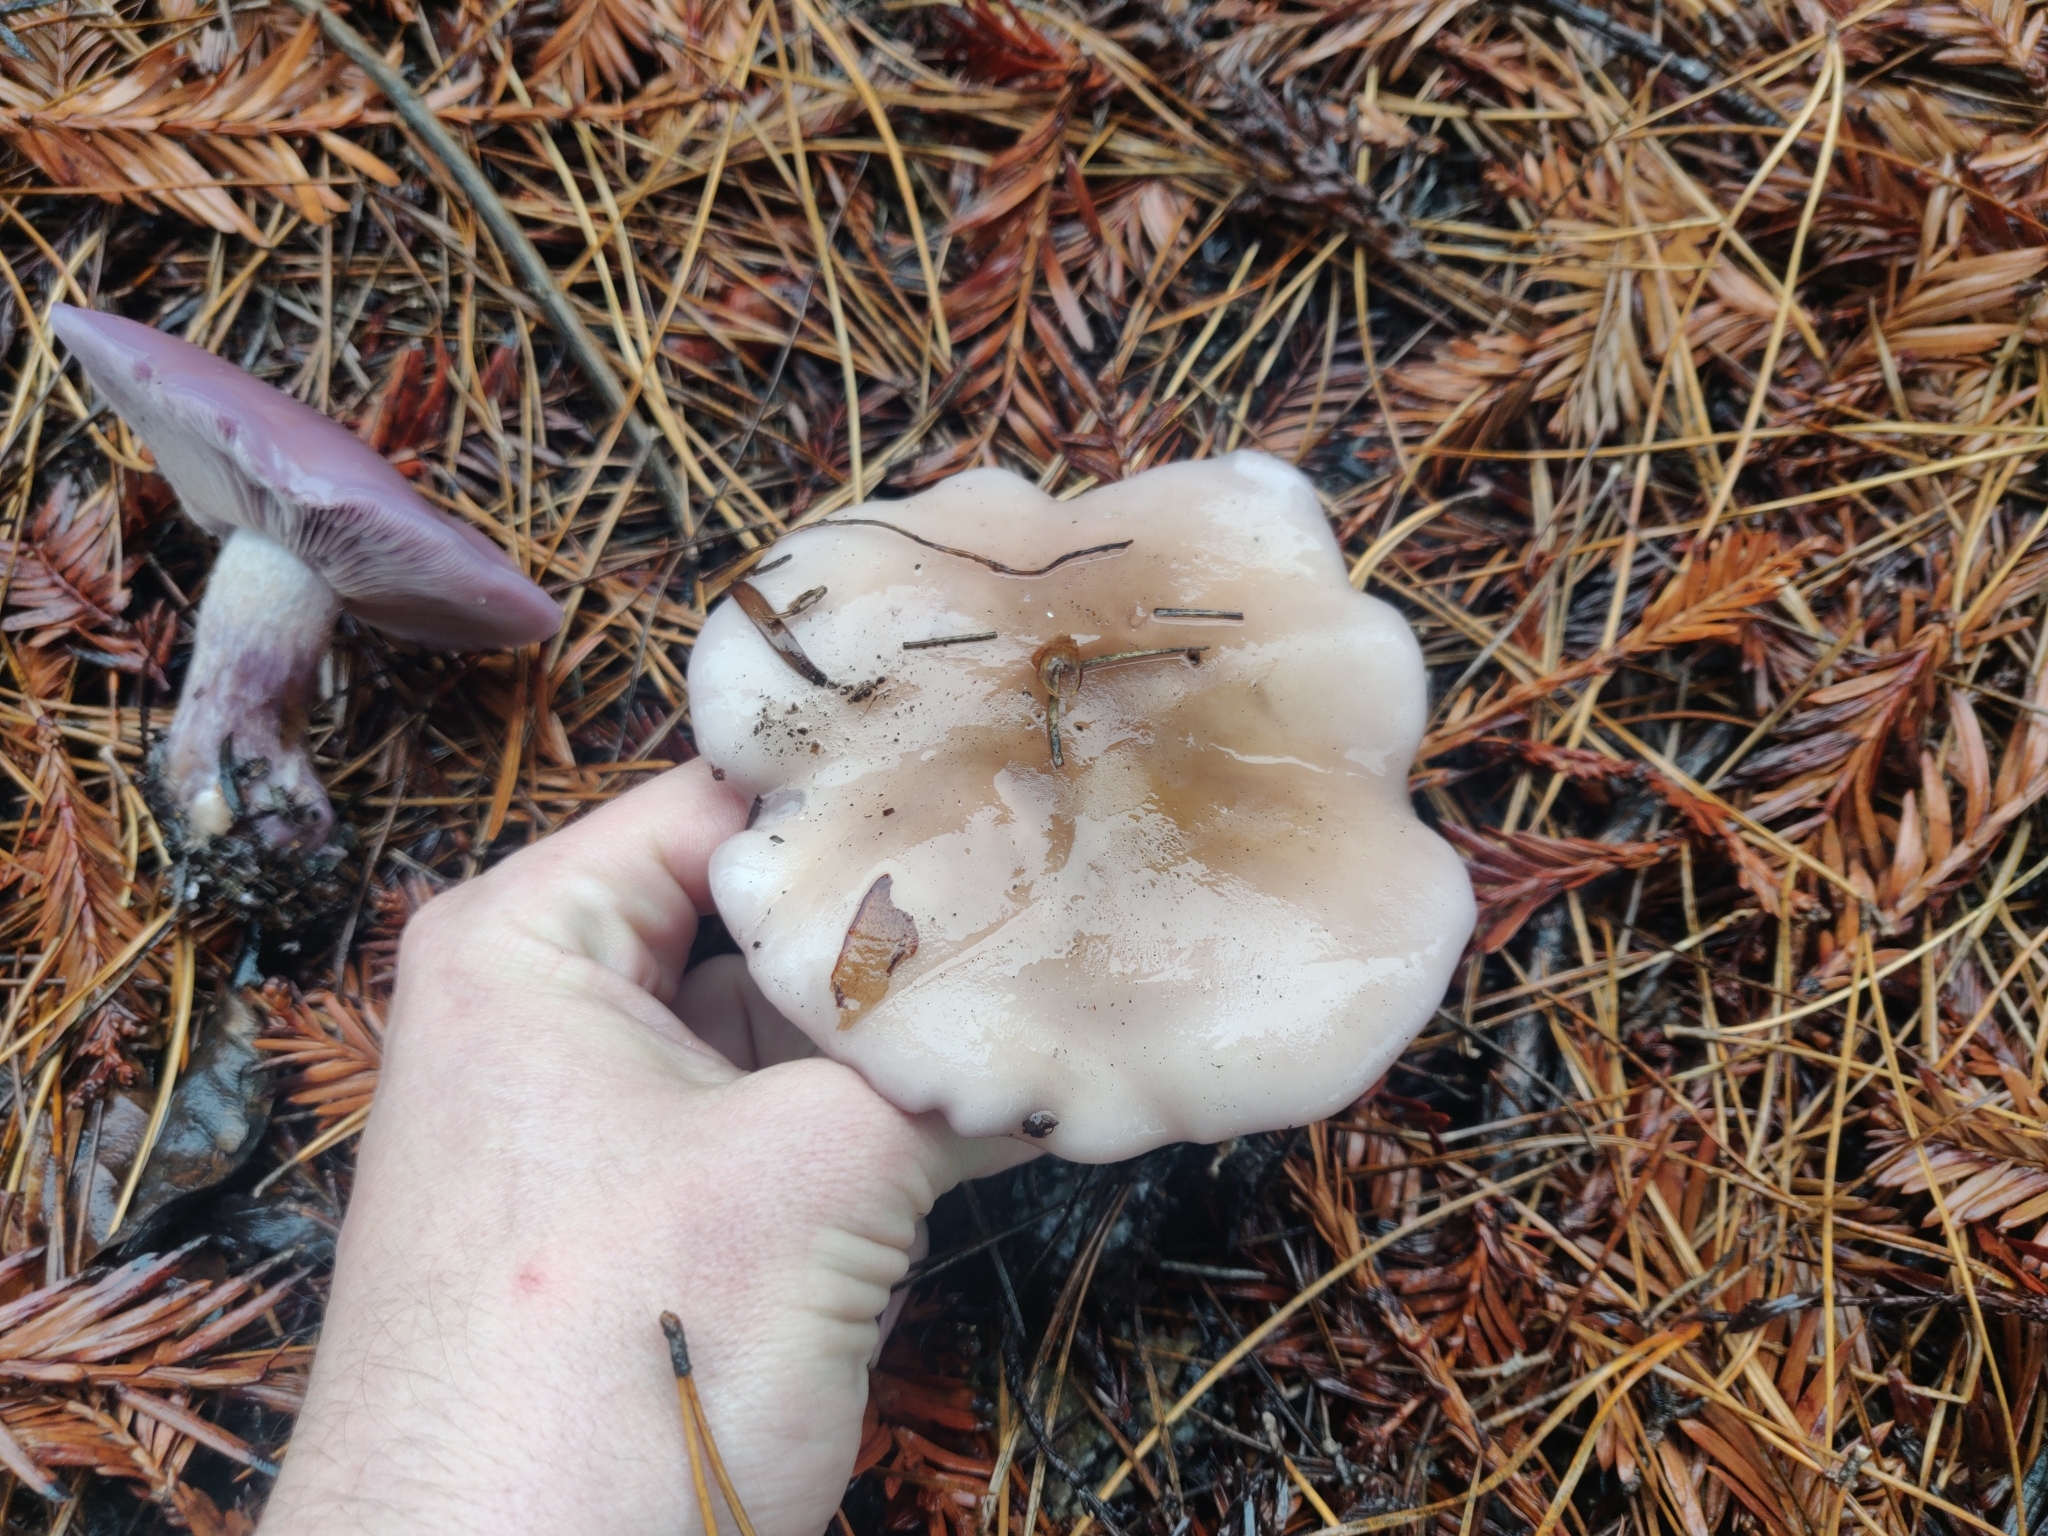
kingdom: Fungi
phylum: Basidiomycota
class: Agaricomycetes
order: Agaricales
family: Tricholomataceae
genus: Collybia
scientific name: Collybia
